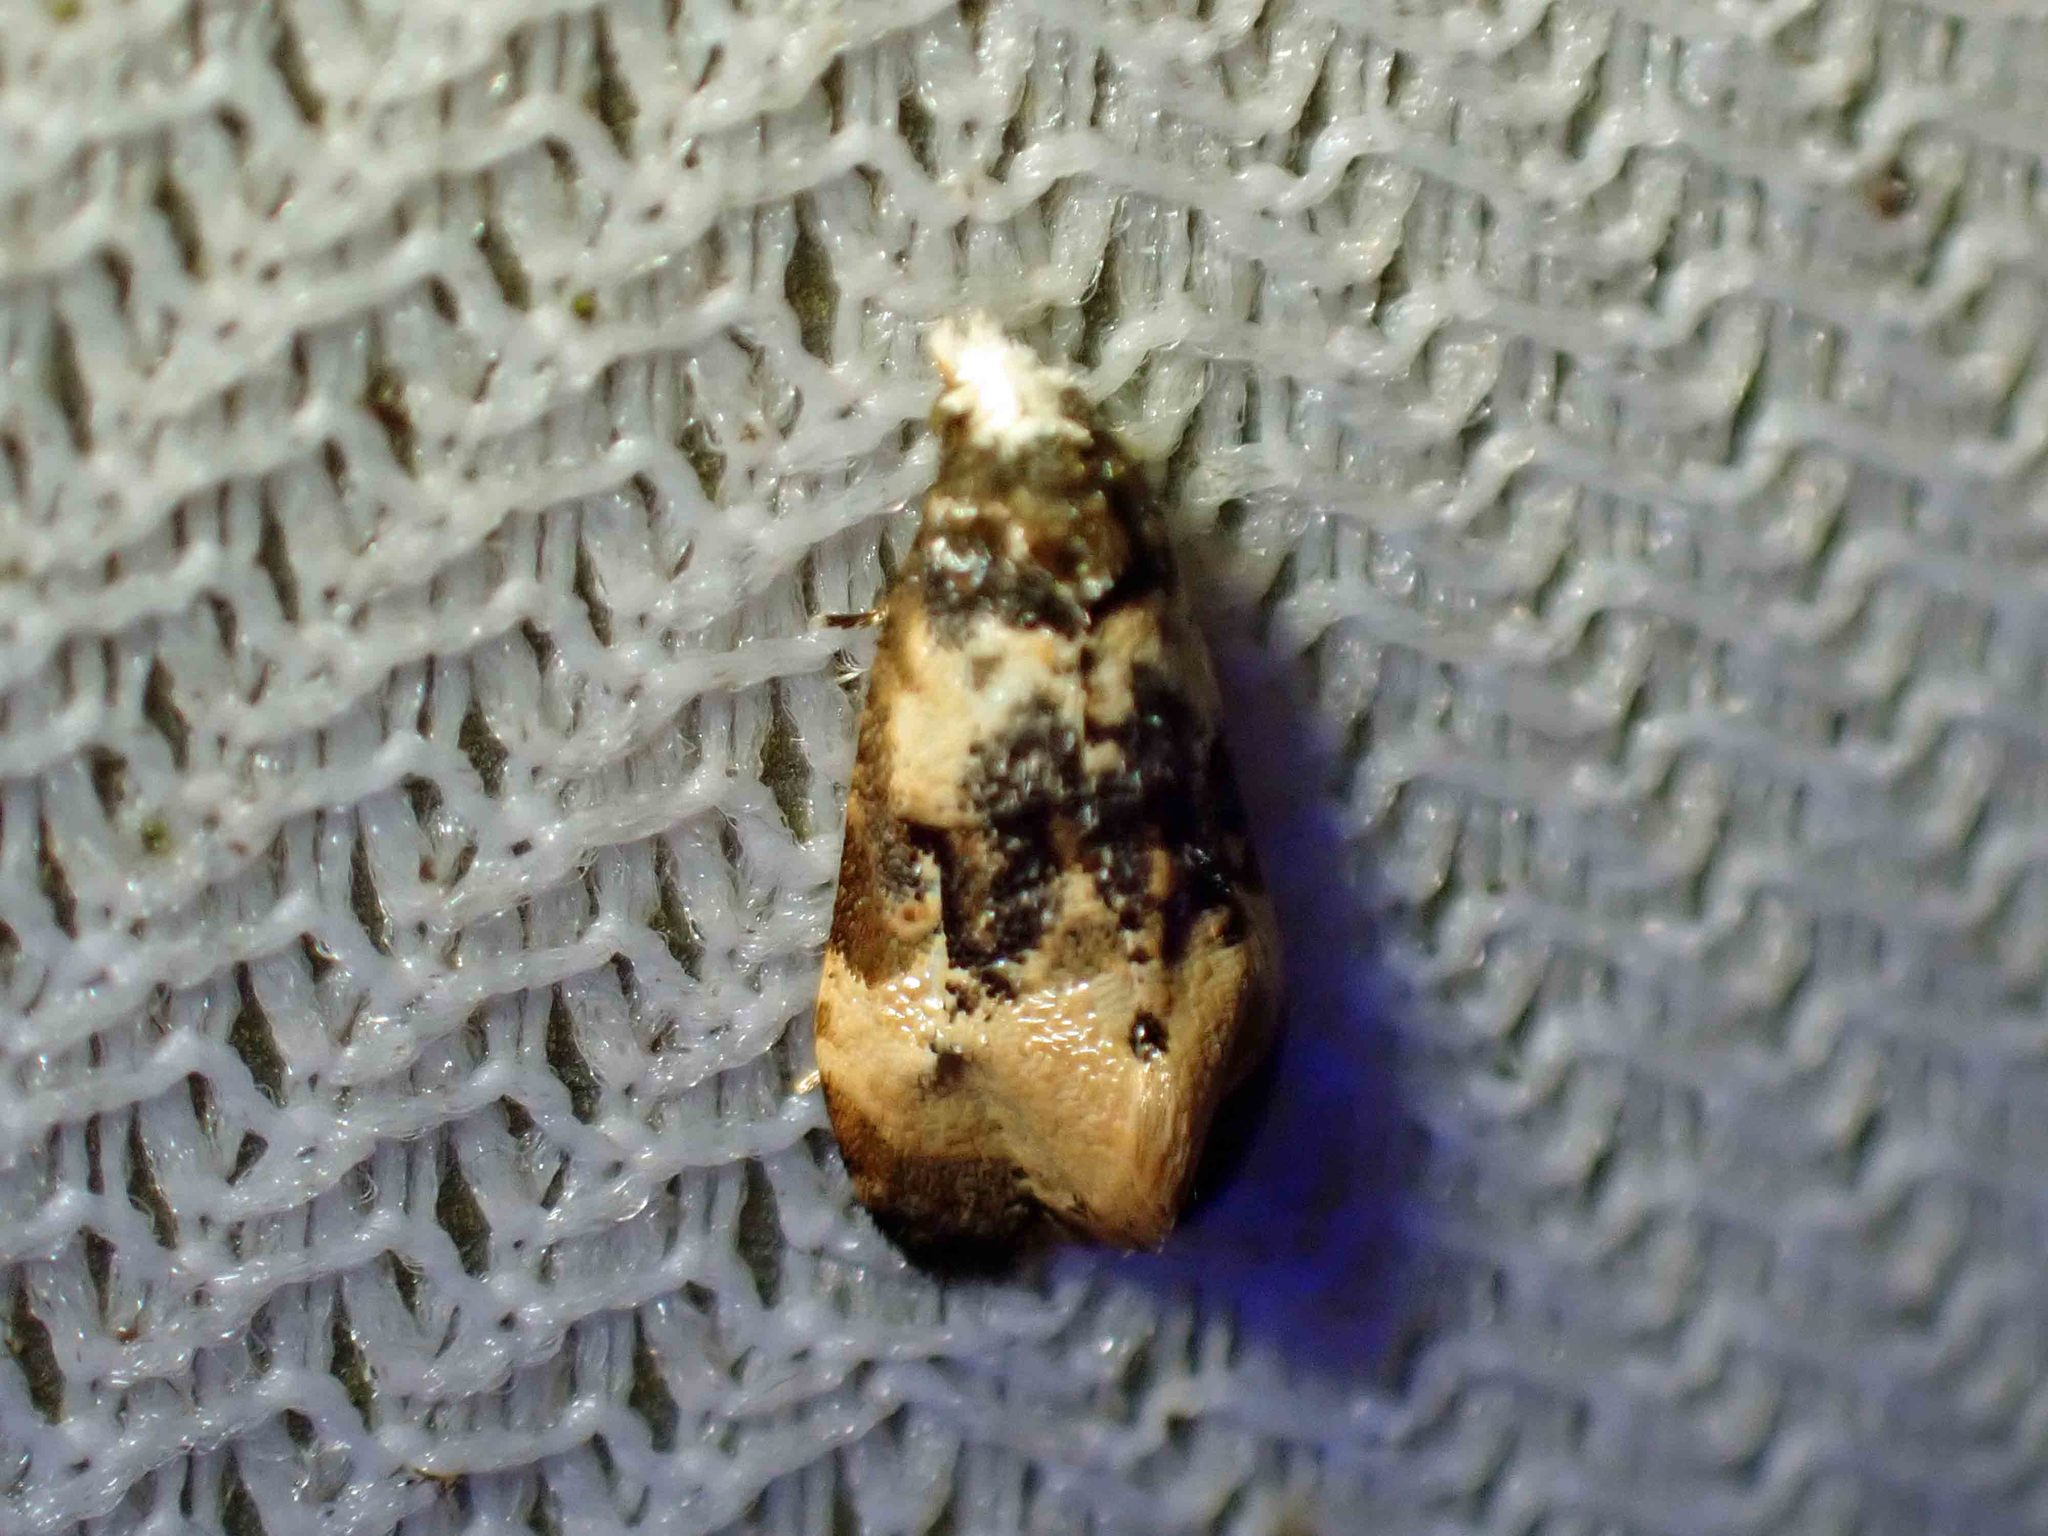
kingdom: Animalia
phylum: Arthropoda
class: Insecta
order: Lepidoptera
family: Tortricidae
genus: Phalonidia
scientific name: Phalonidia memoranda
